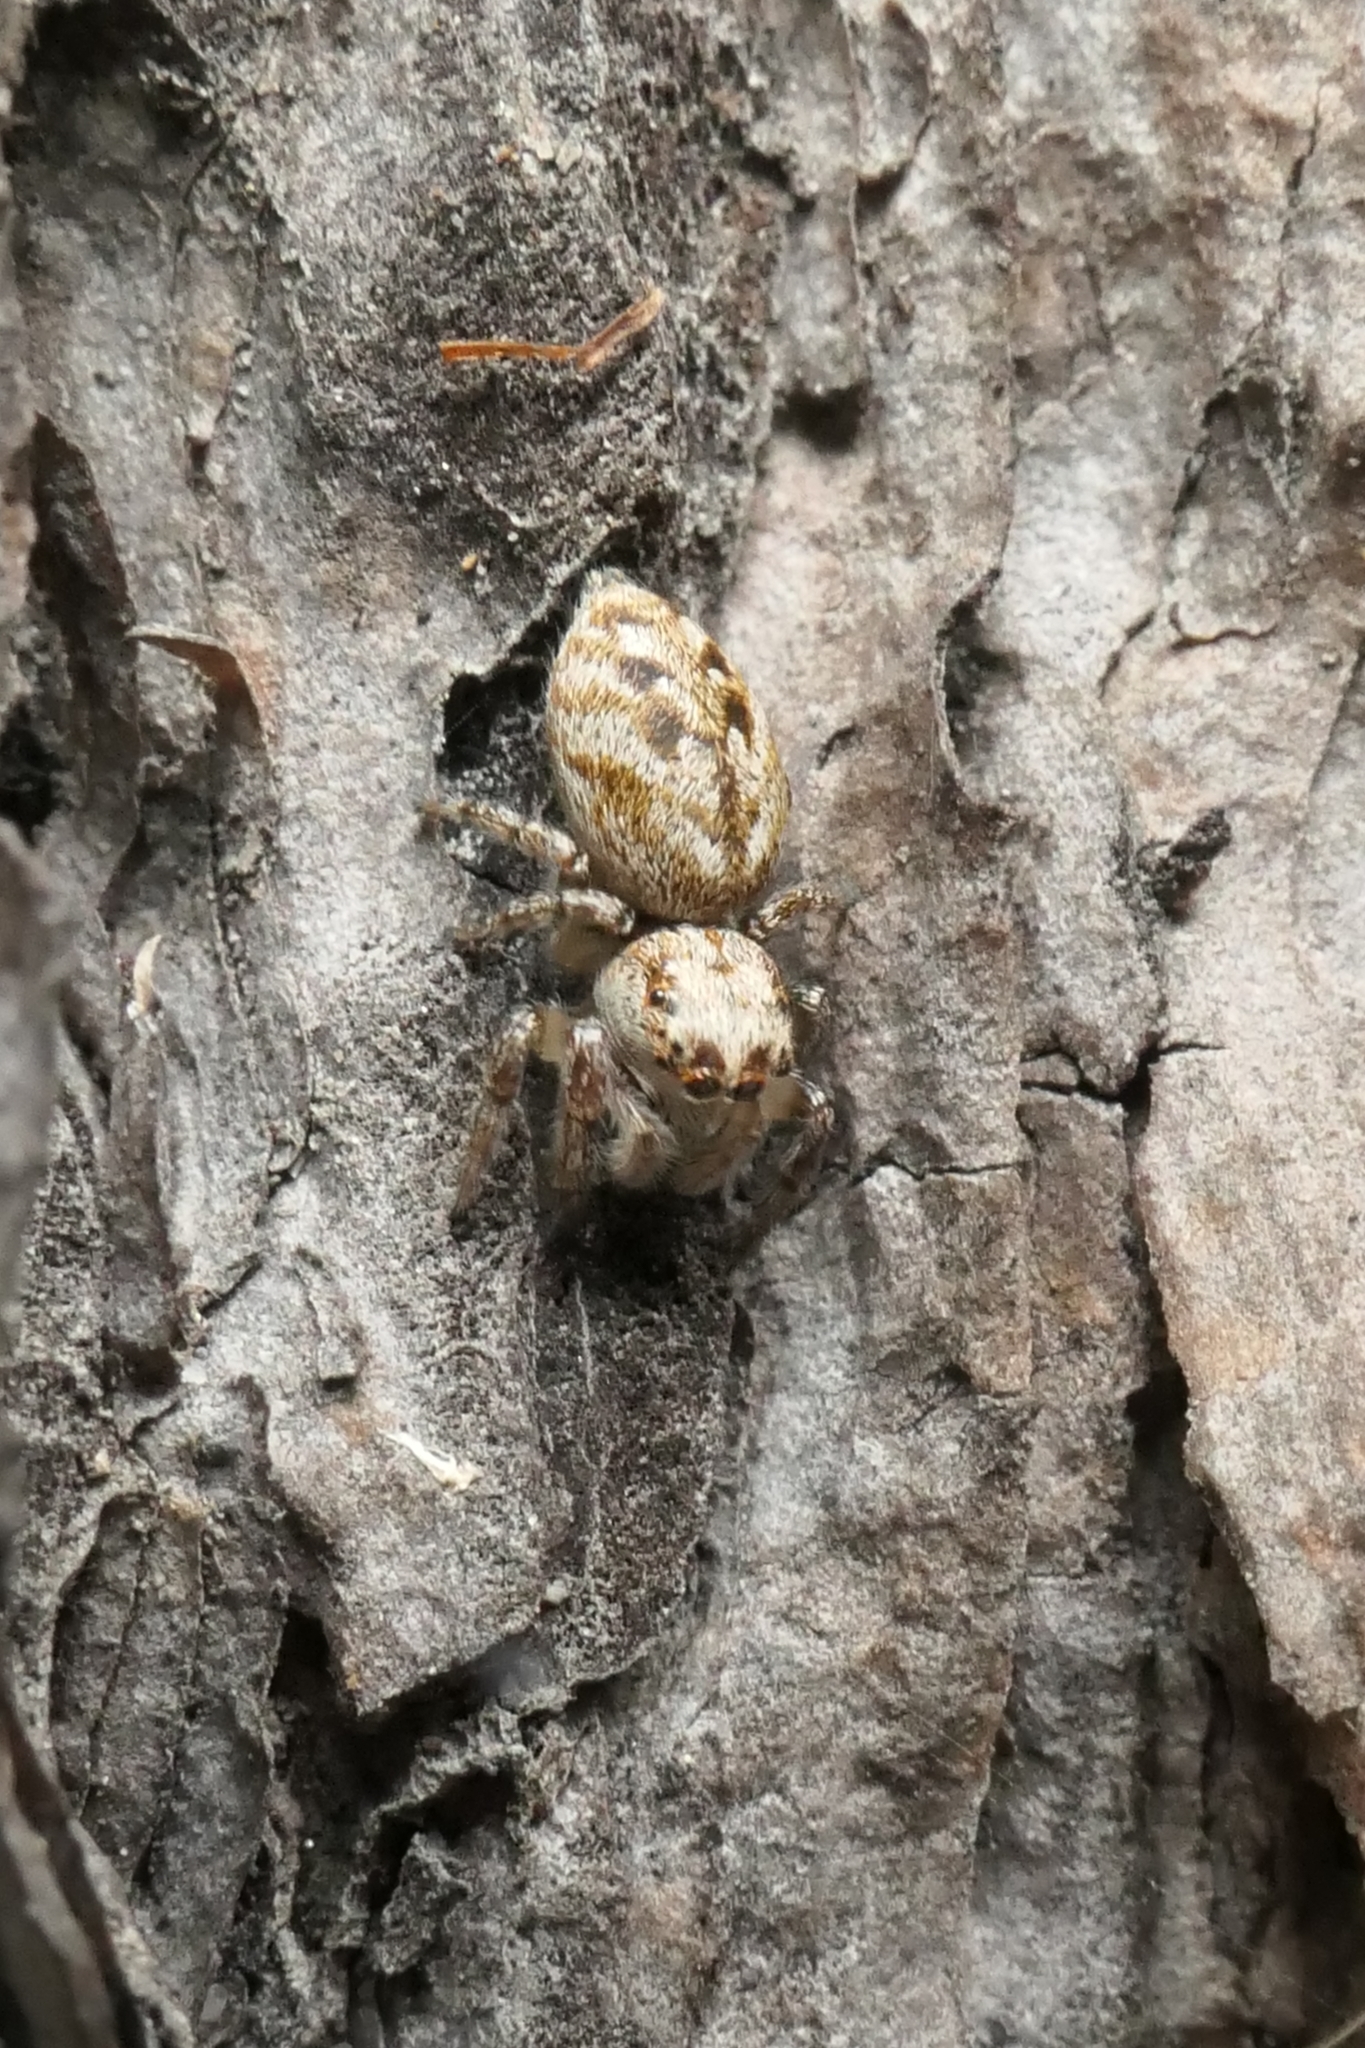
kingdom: Animalia
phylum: Arthropoda
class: Arachnida
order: Araneae
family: Salticidae
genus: Opisthoncus
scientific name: Opisthoncus polyphemus
